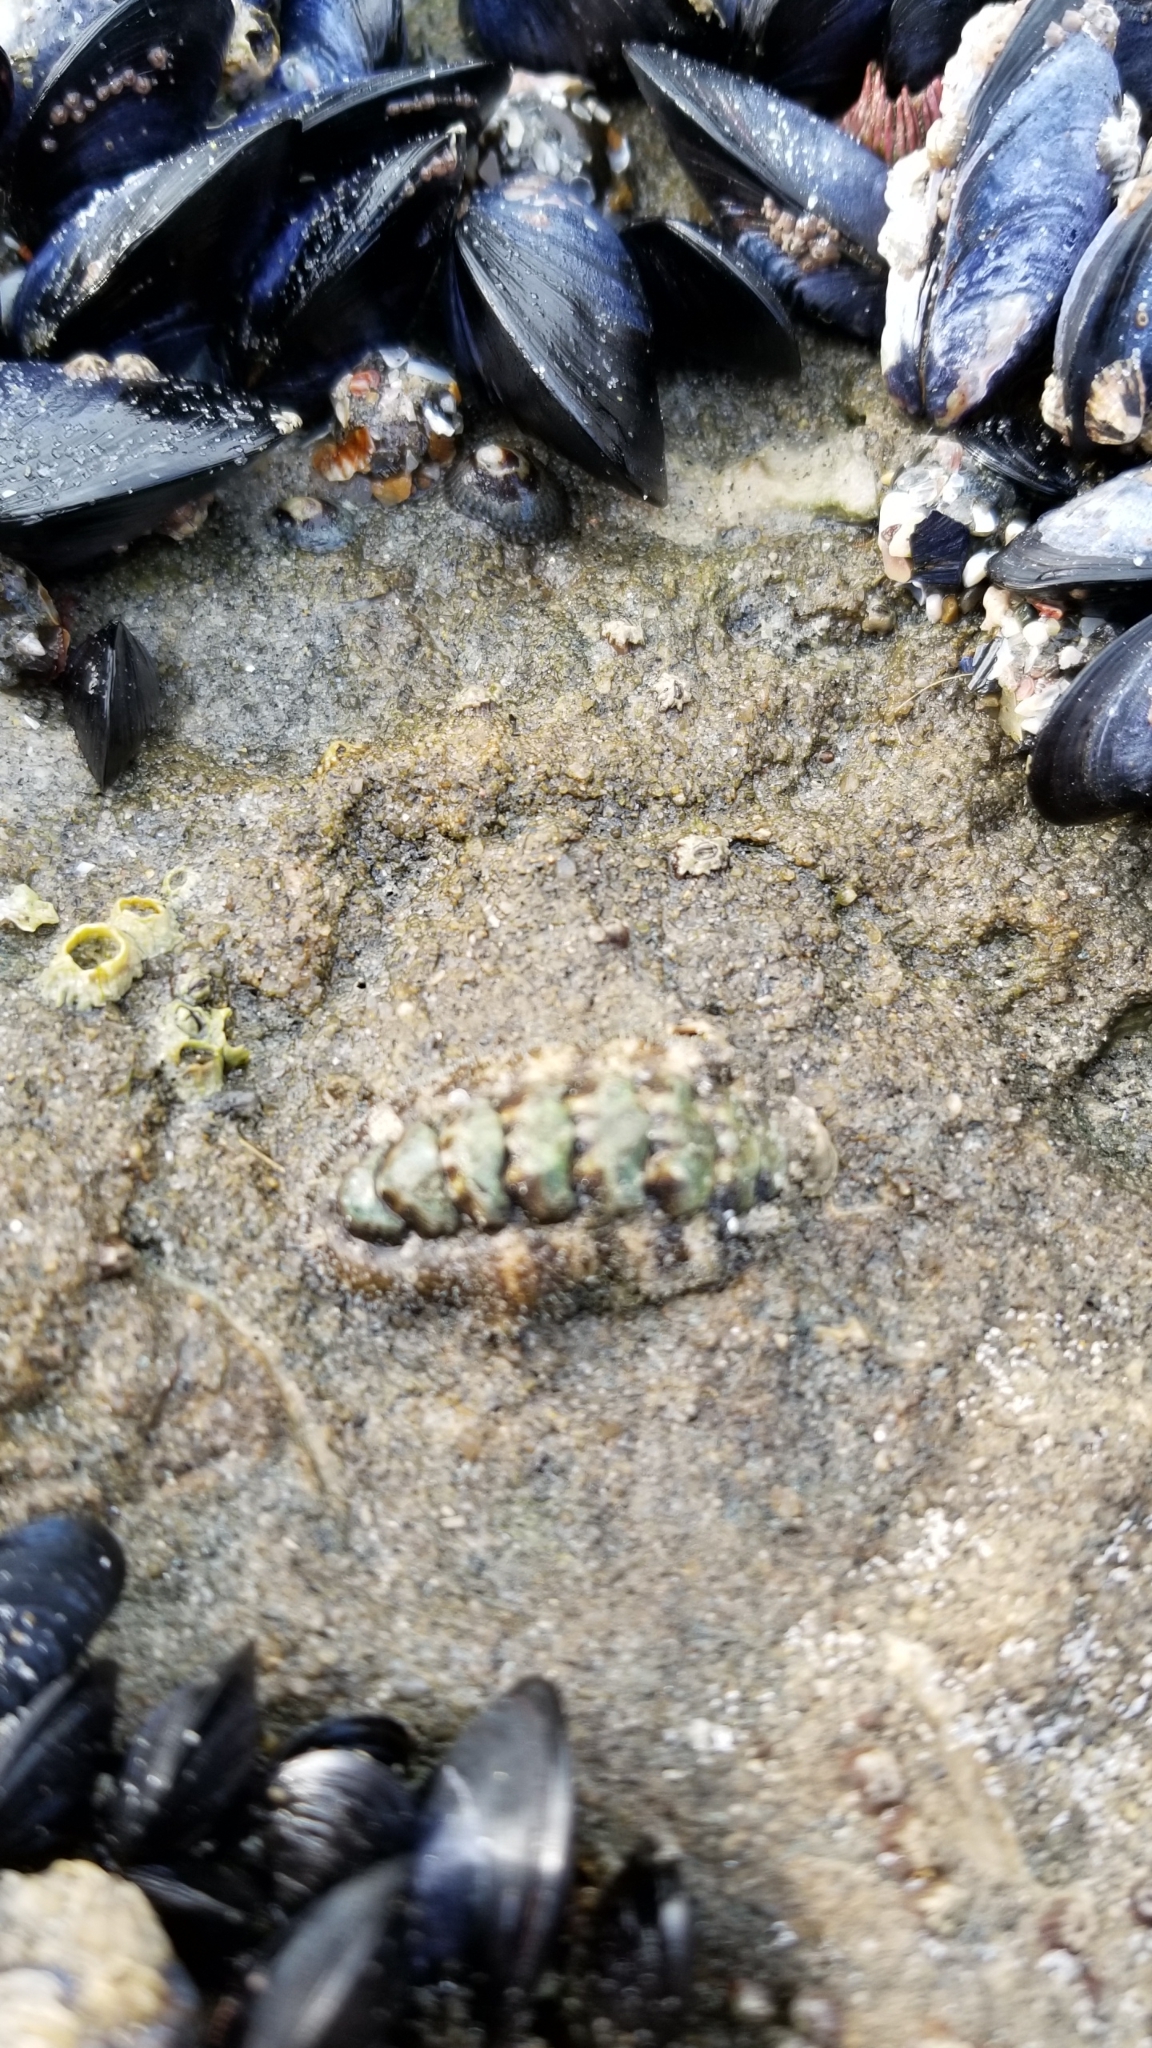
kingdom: Animalia
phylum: Mollusca
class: Polyplacophora
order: Chitonida
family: Tonicellidae
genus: Nuttallina
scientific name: Nuttallina californica
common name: California nuttall chiton
